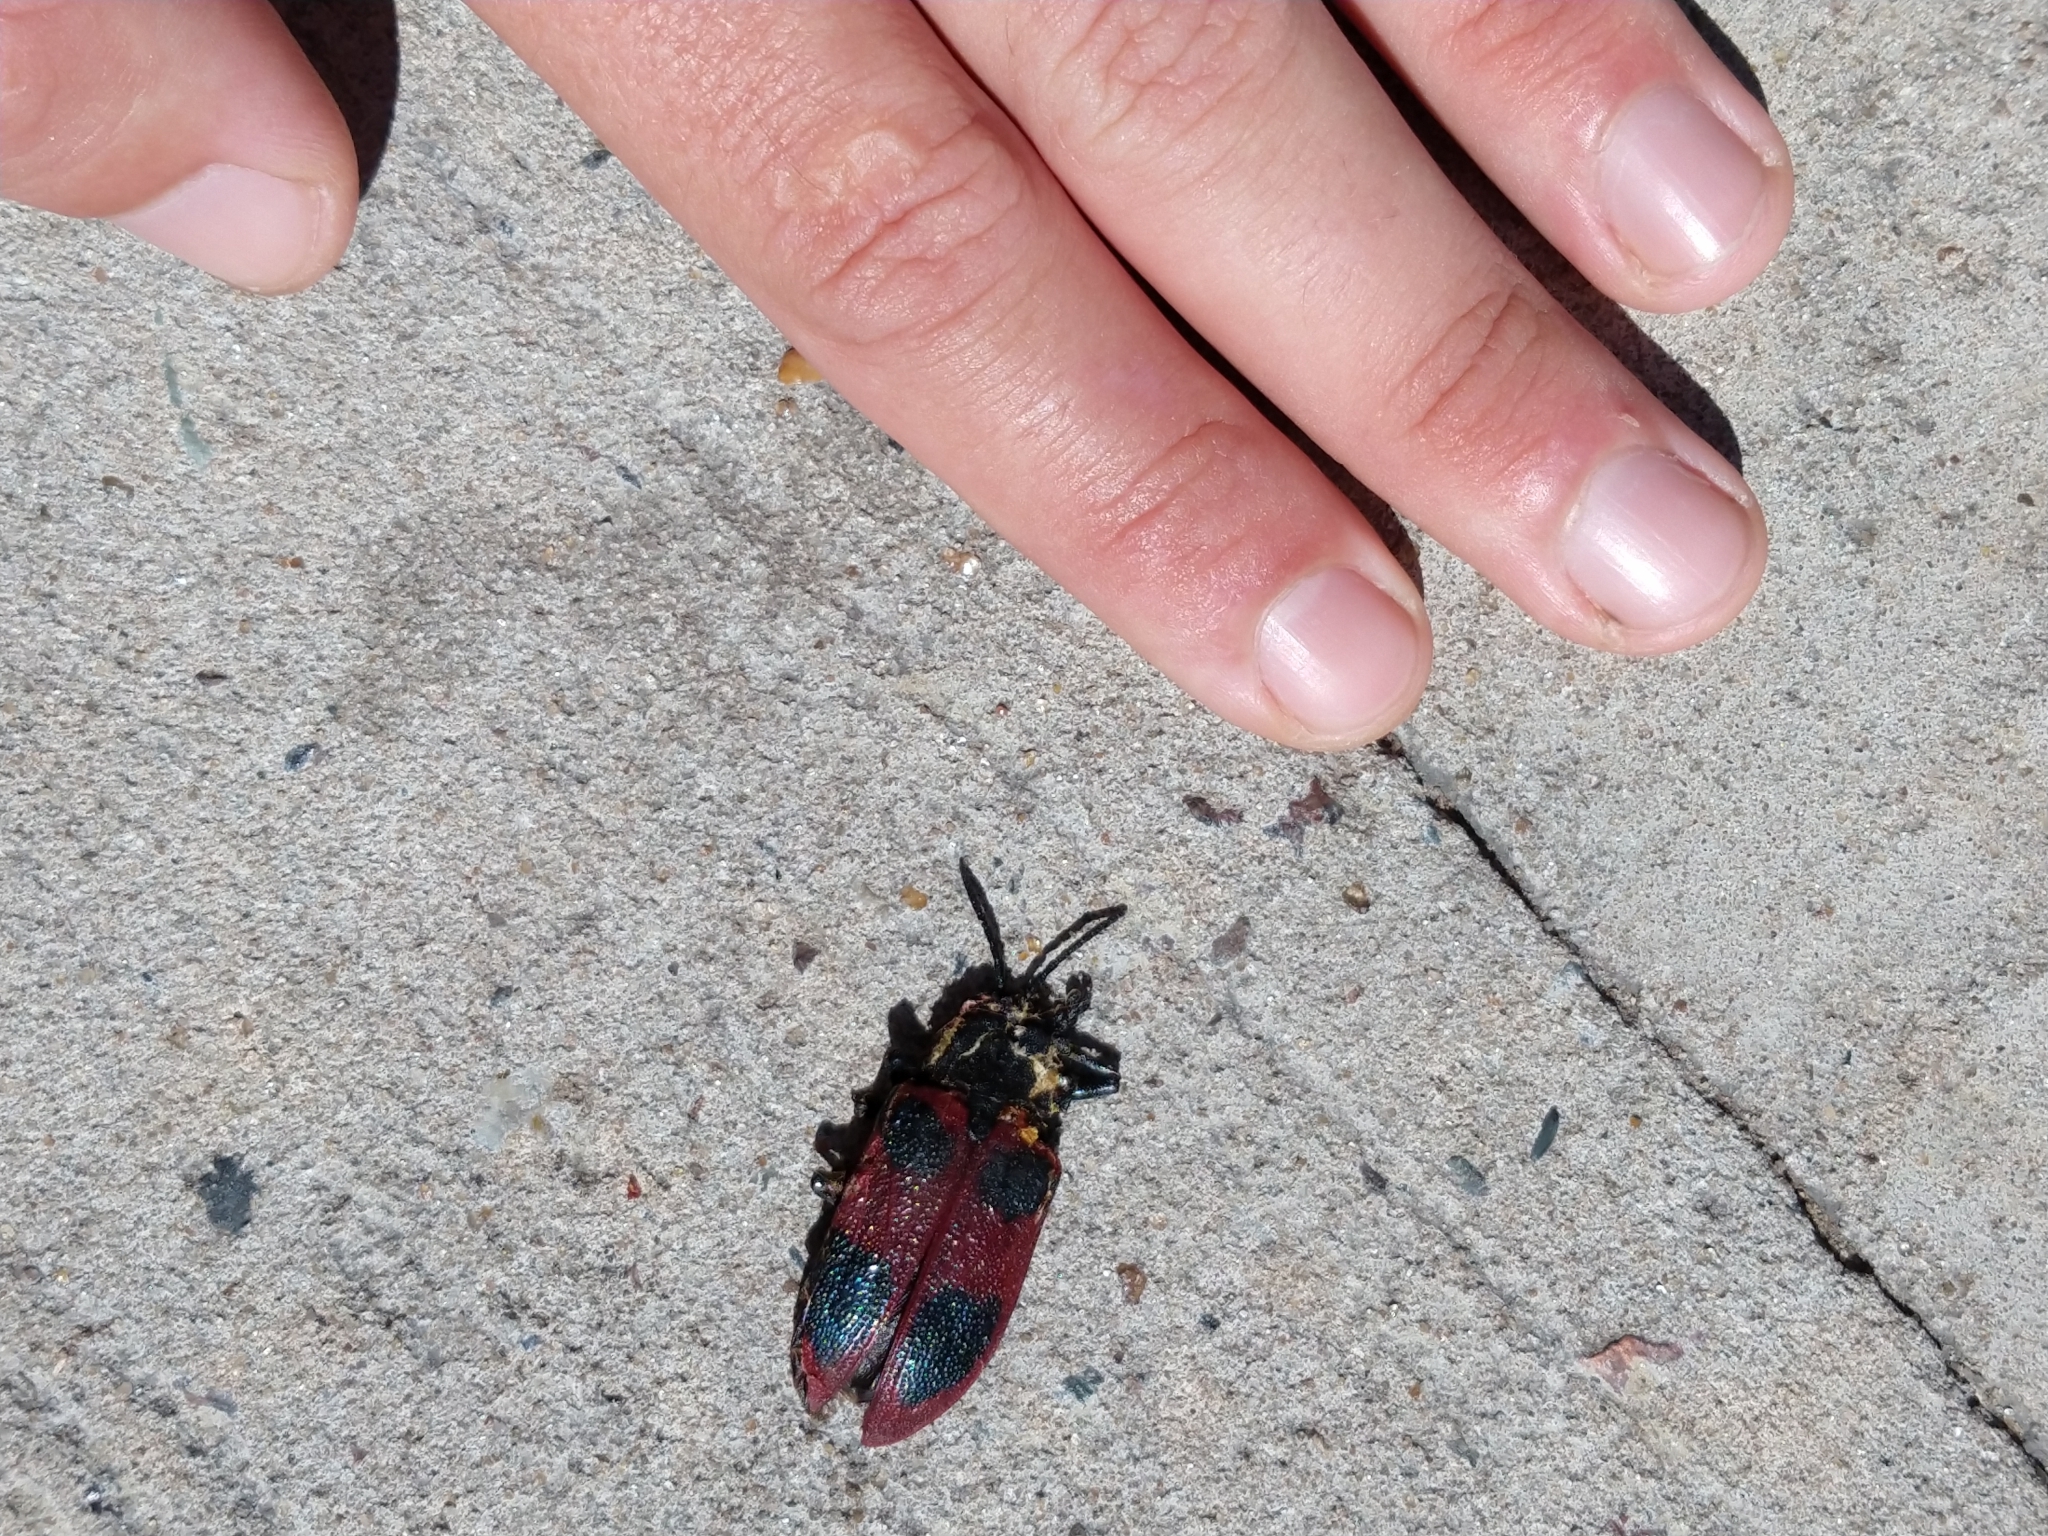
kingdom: Animalia
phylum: Arthropoda
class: Insecta
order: Coleoptera
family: Chrysomelidae
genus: Coraliomela
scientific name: Coraliomela quadrimaculata
